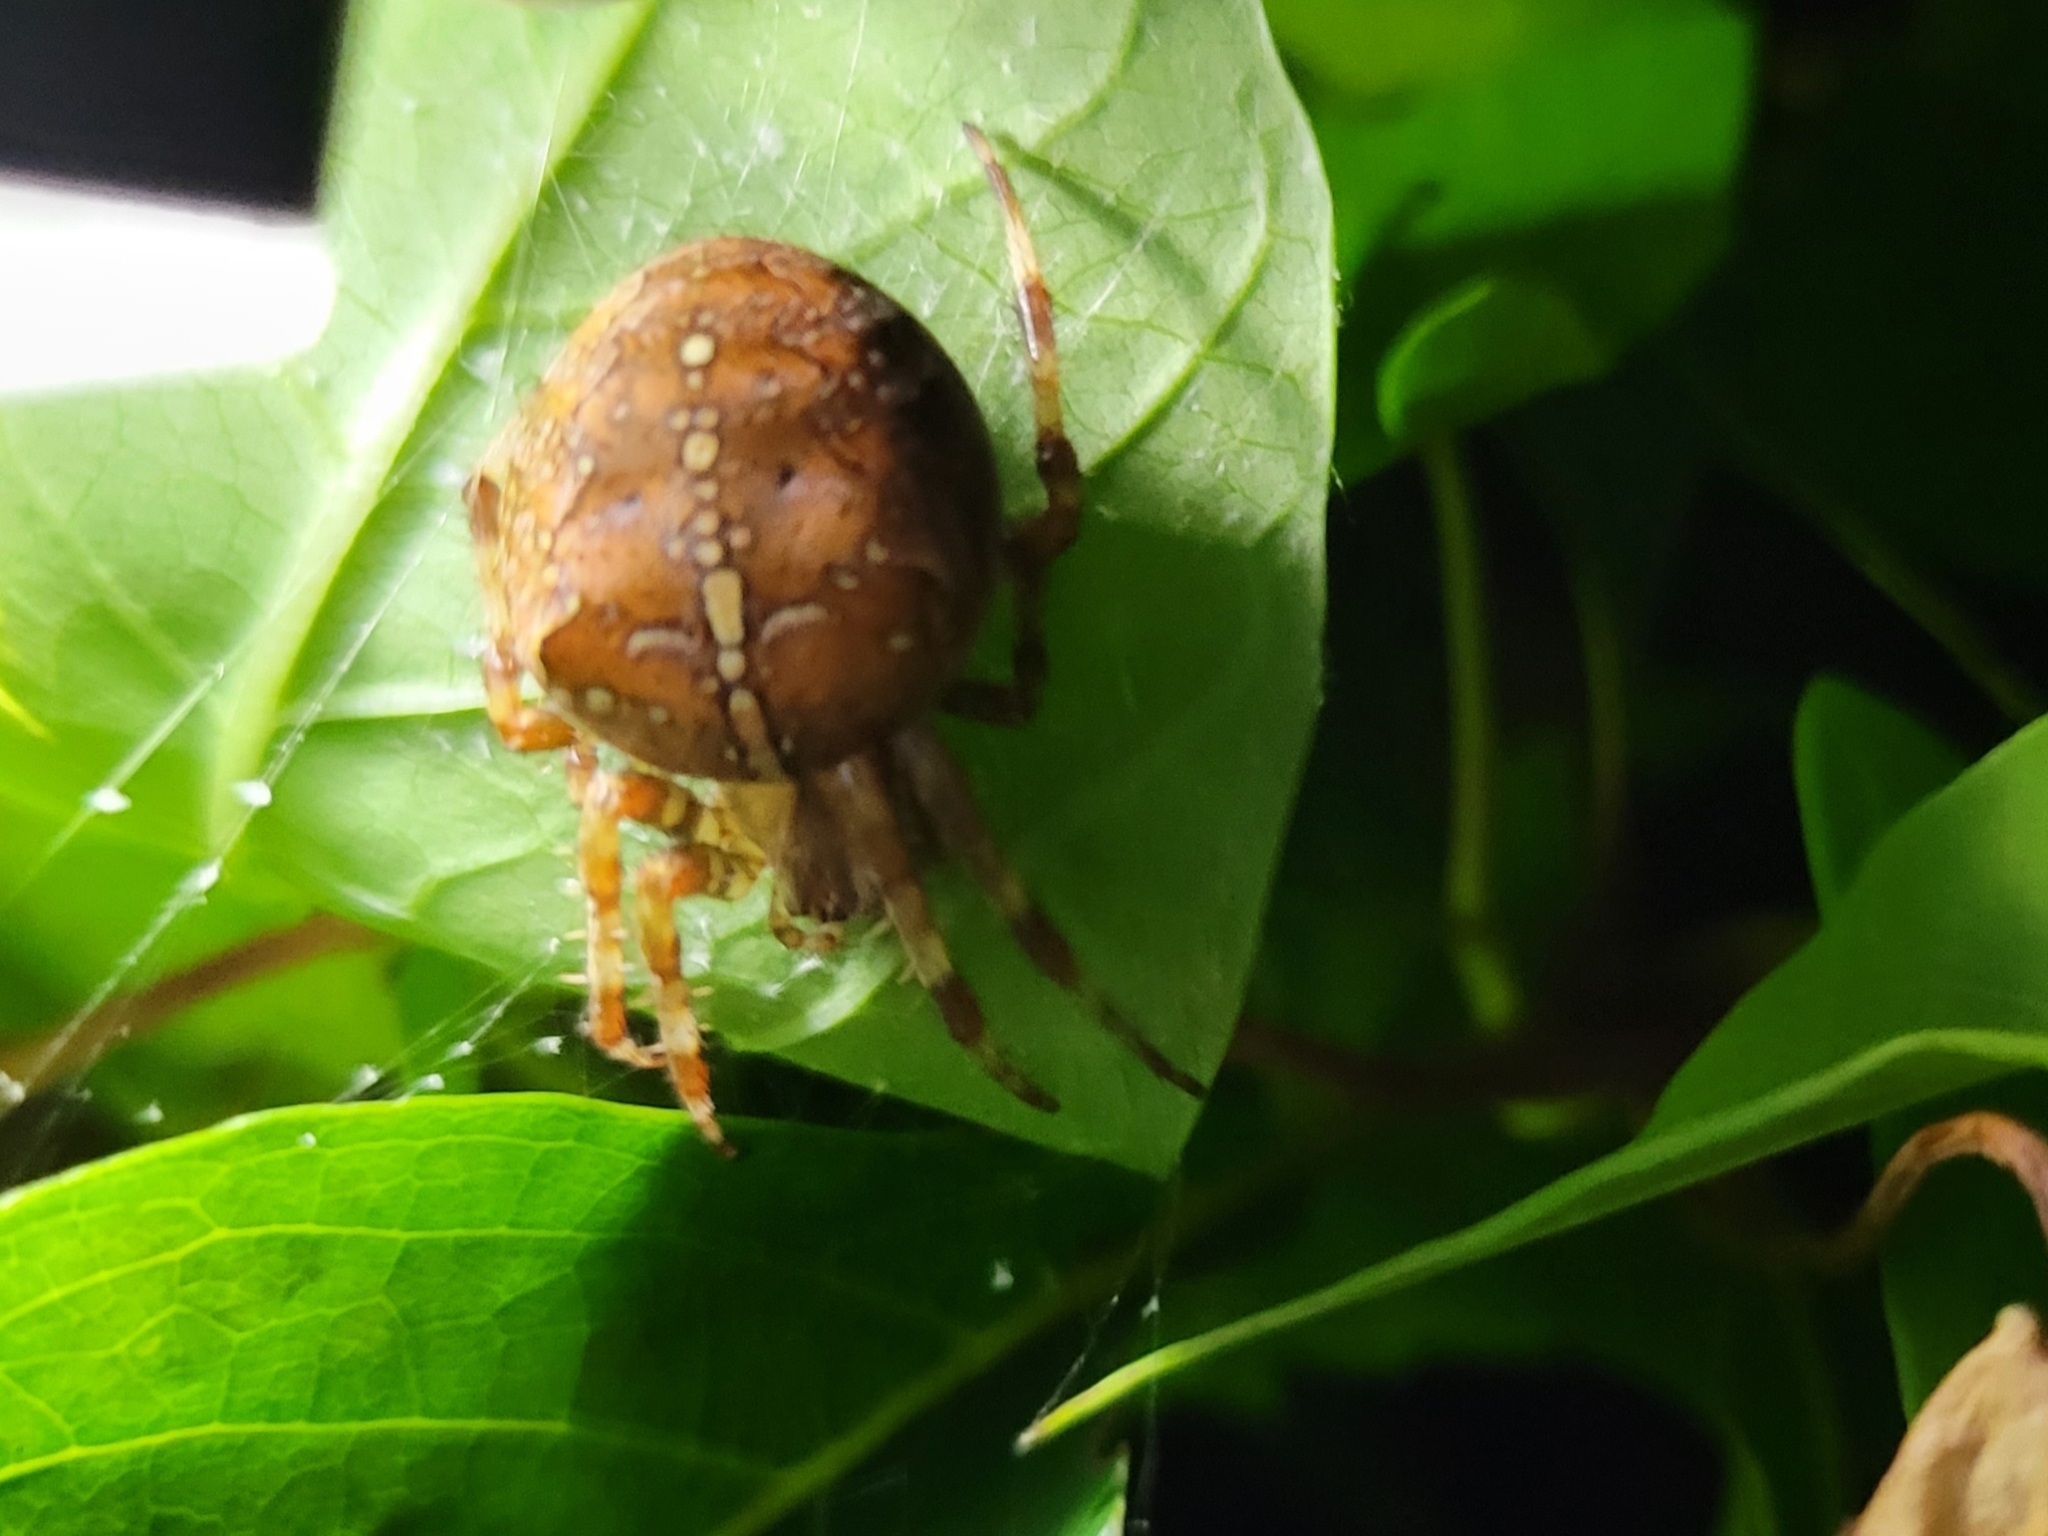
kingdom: Animalia
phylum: Arthropoda
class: Arachnida
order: Araneae
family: Araneidae
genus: Araneus
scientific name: Araneus diadematus
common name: Cross orbweaver
